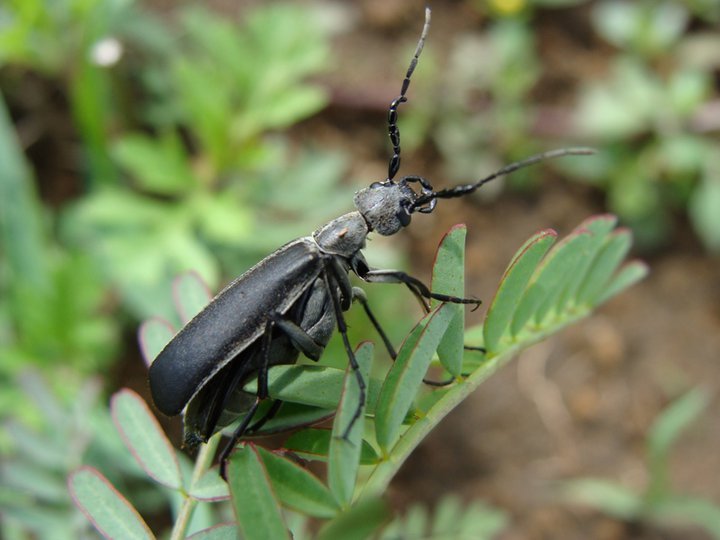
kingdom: Animalia
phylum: Arthropoda
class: Insecta
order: Coleoptera
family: Meloidae
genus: Epicauta
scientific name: Epicauta curvicornis
